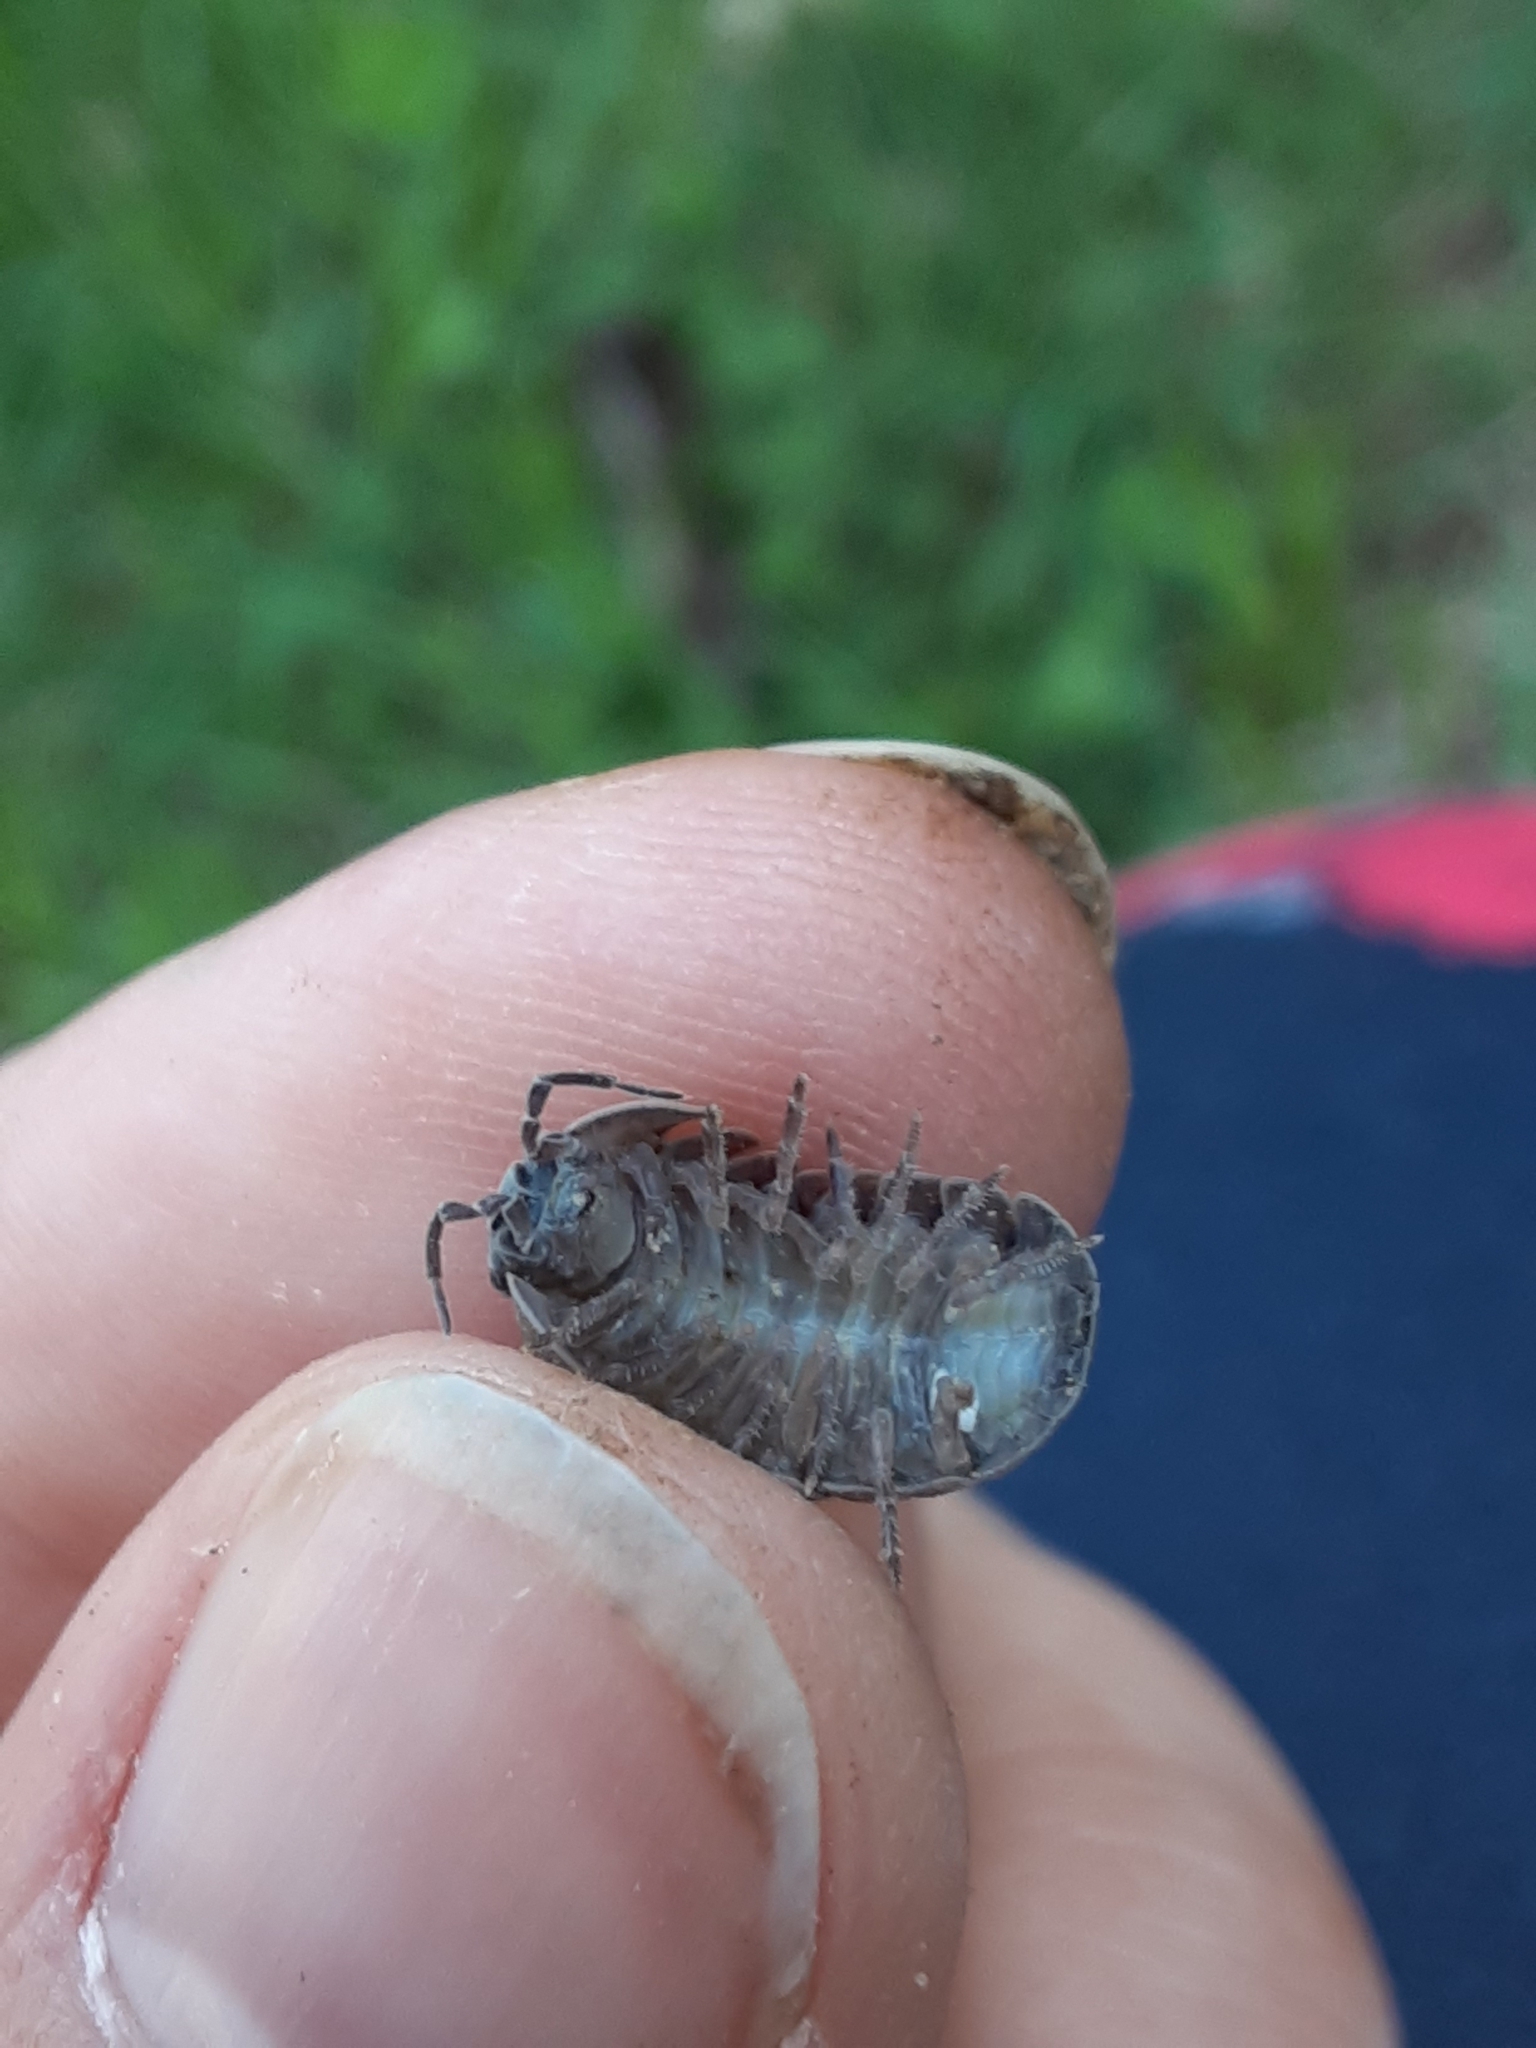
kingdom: Animalia
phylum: Arthropoda
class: Malacostraca
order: Isopoda
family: Armadillidiidae
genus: Armadillidium
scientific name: Armadillidium vulgare
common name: Common pill woodlouse
